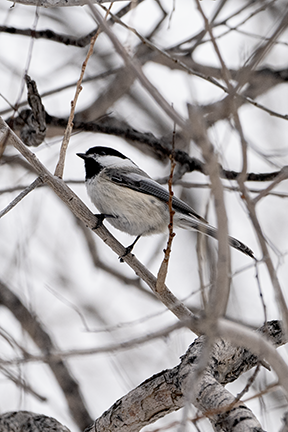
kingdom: Animalia
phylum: Chordata
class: Aves
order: Passeriformes
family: Paridae
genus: Poecile
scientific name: Poecile atricapillus
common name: Black-capped chickadee
